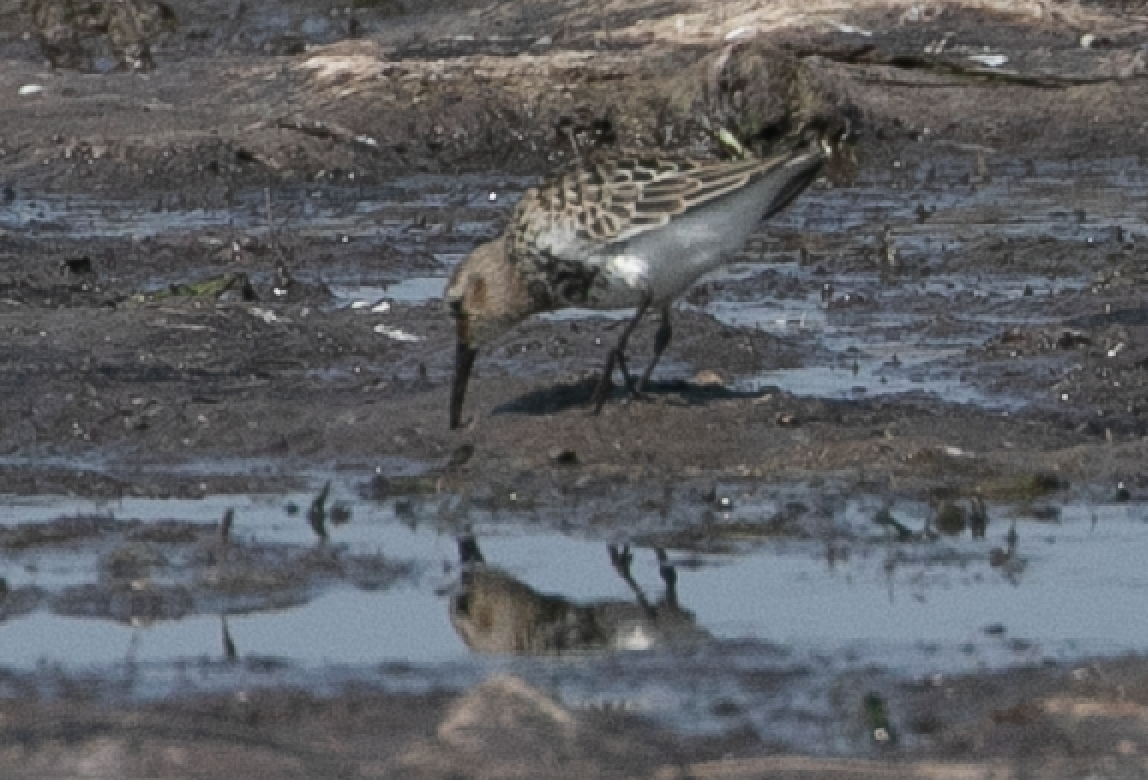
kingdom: Animalia
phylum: Chordata
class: Aves
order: Charadriiformes
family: Scolopacidae
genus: Calidris
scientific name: Calidris alpina
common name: Dunlin
